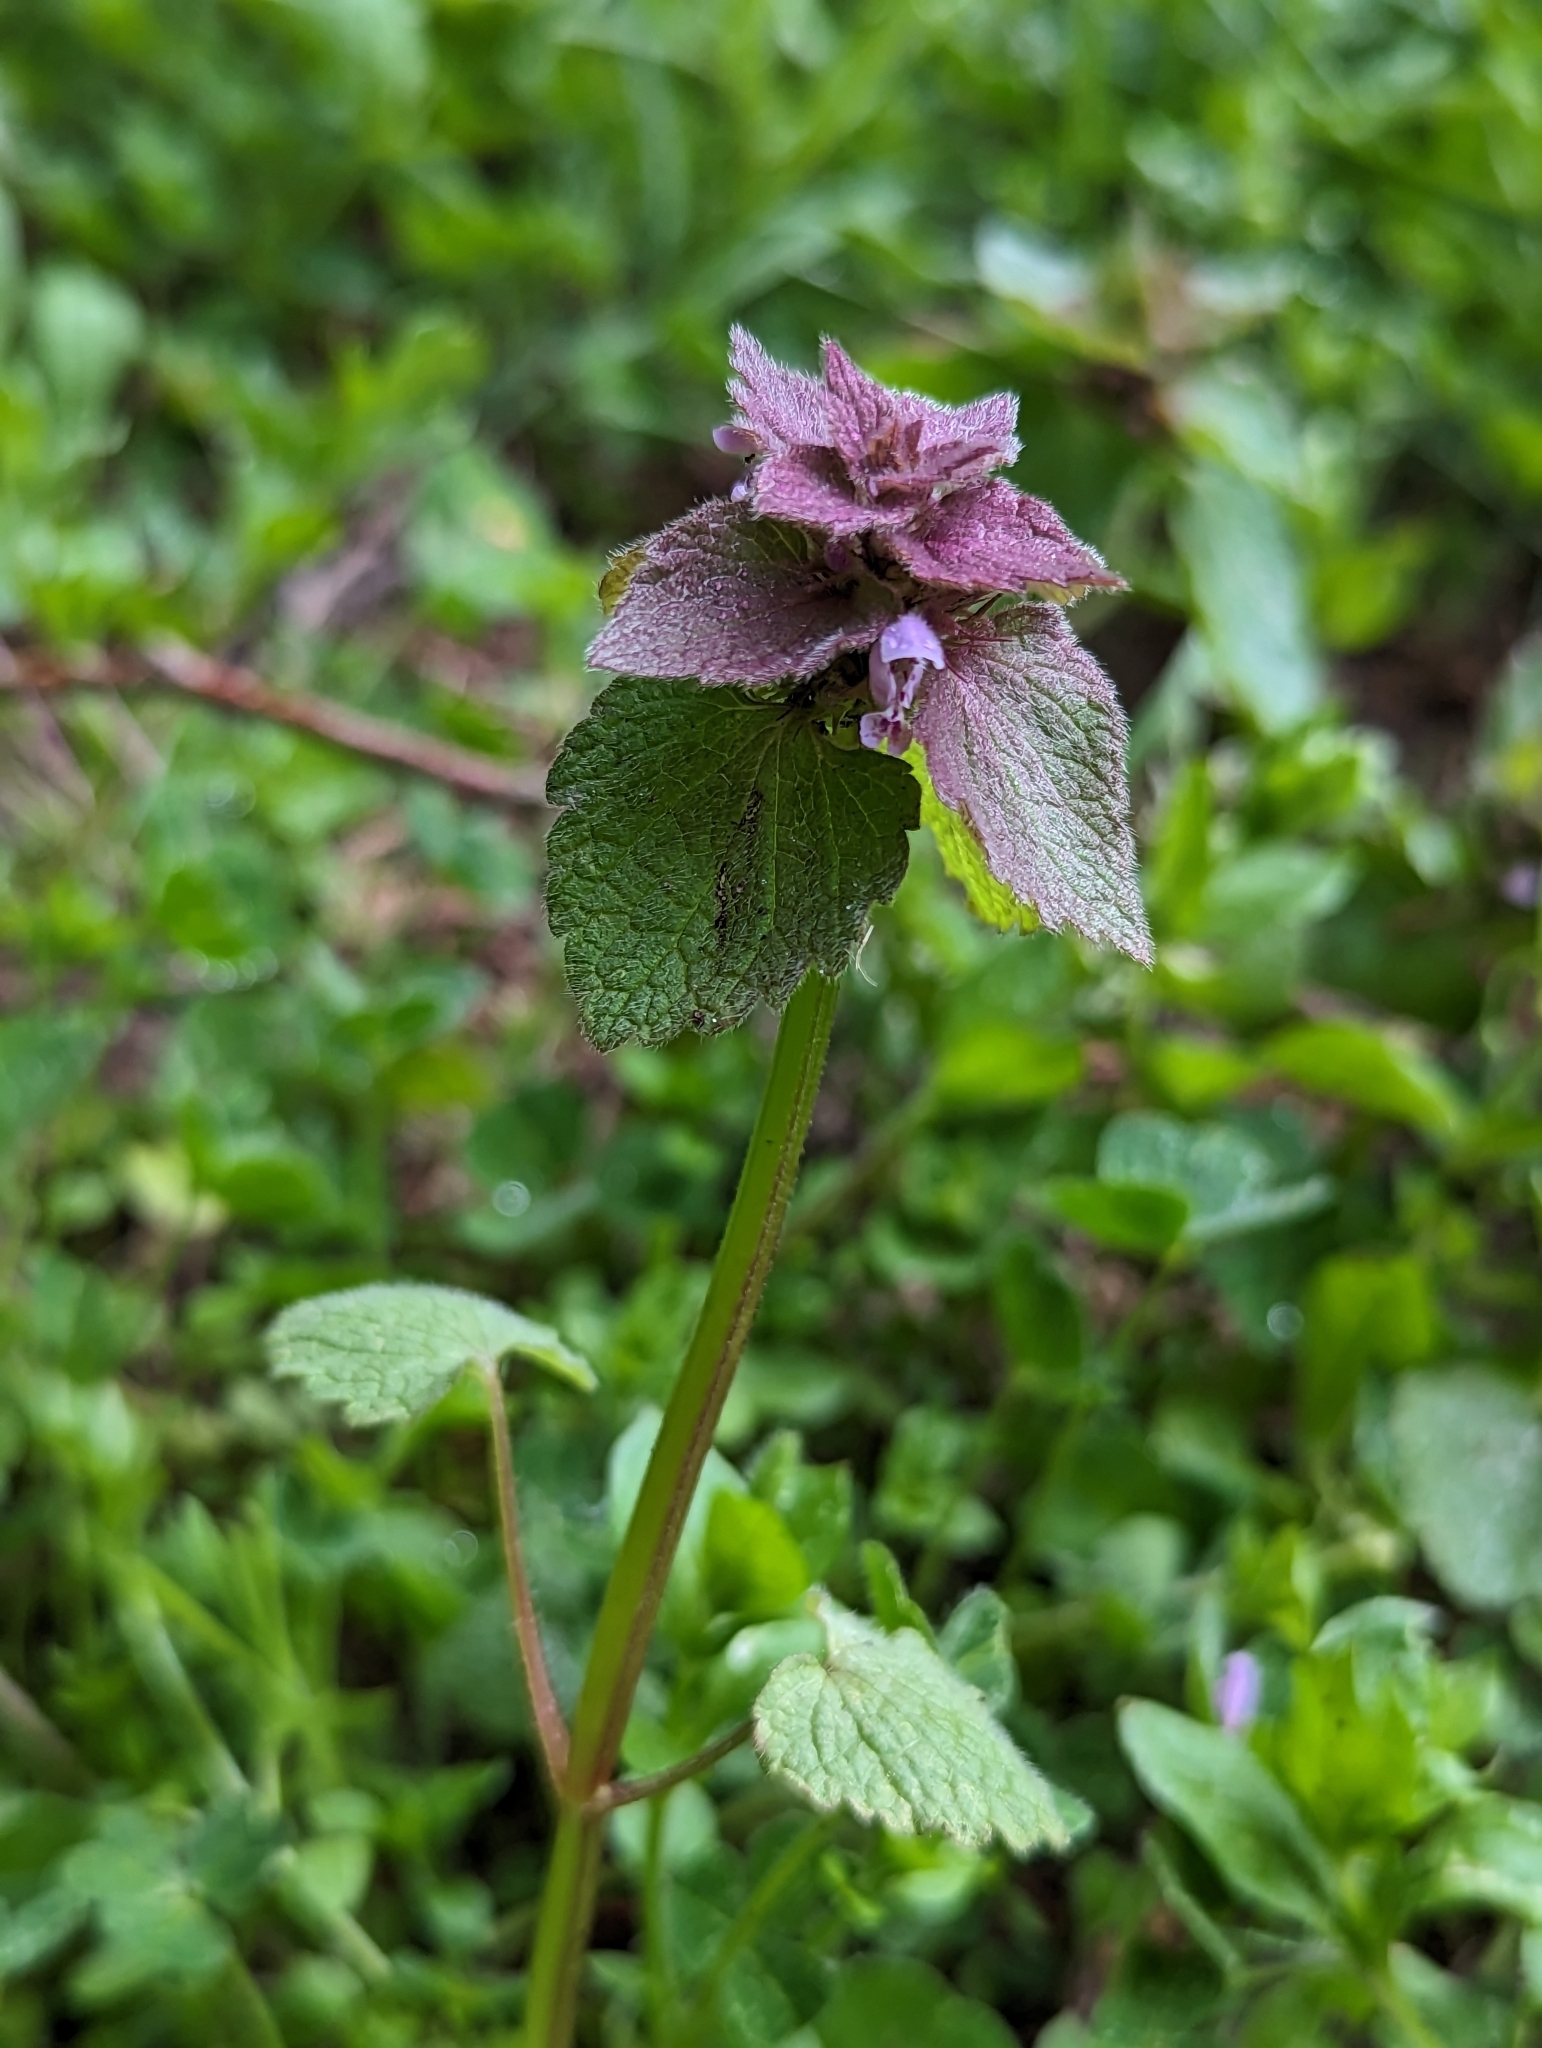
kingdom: Plantae
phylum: Tracheophyta
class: Magnoliopsida
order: Lamiales
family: Lamiaceae
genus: Lamium
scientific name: Lamium purpureum
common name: Red dead-nettle
